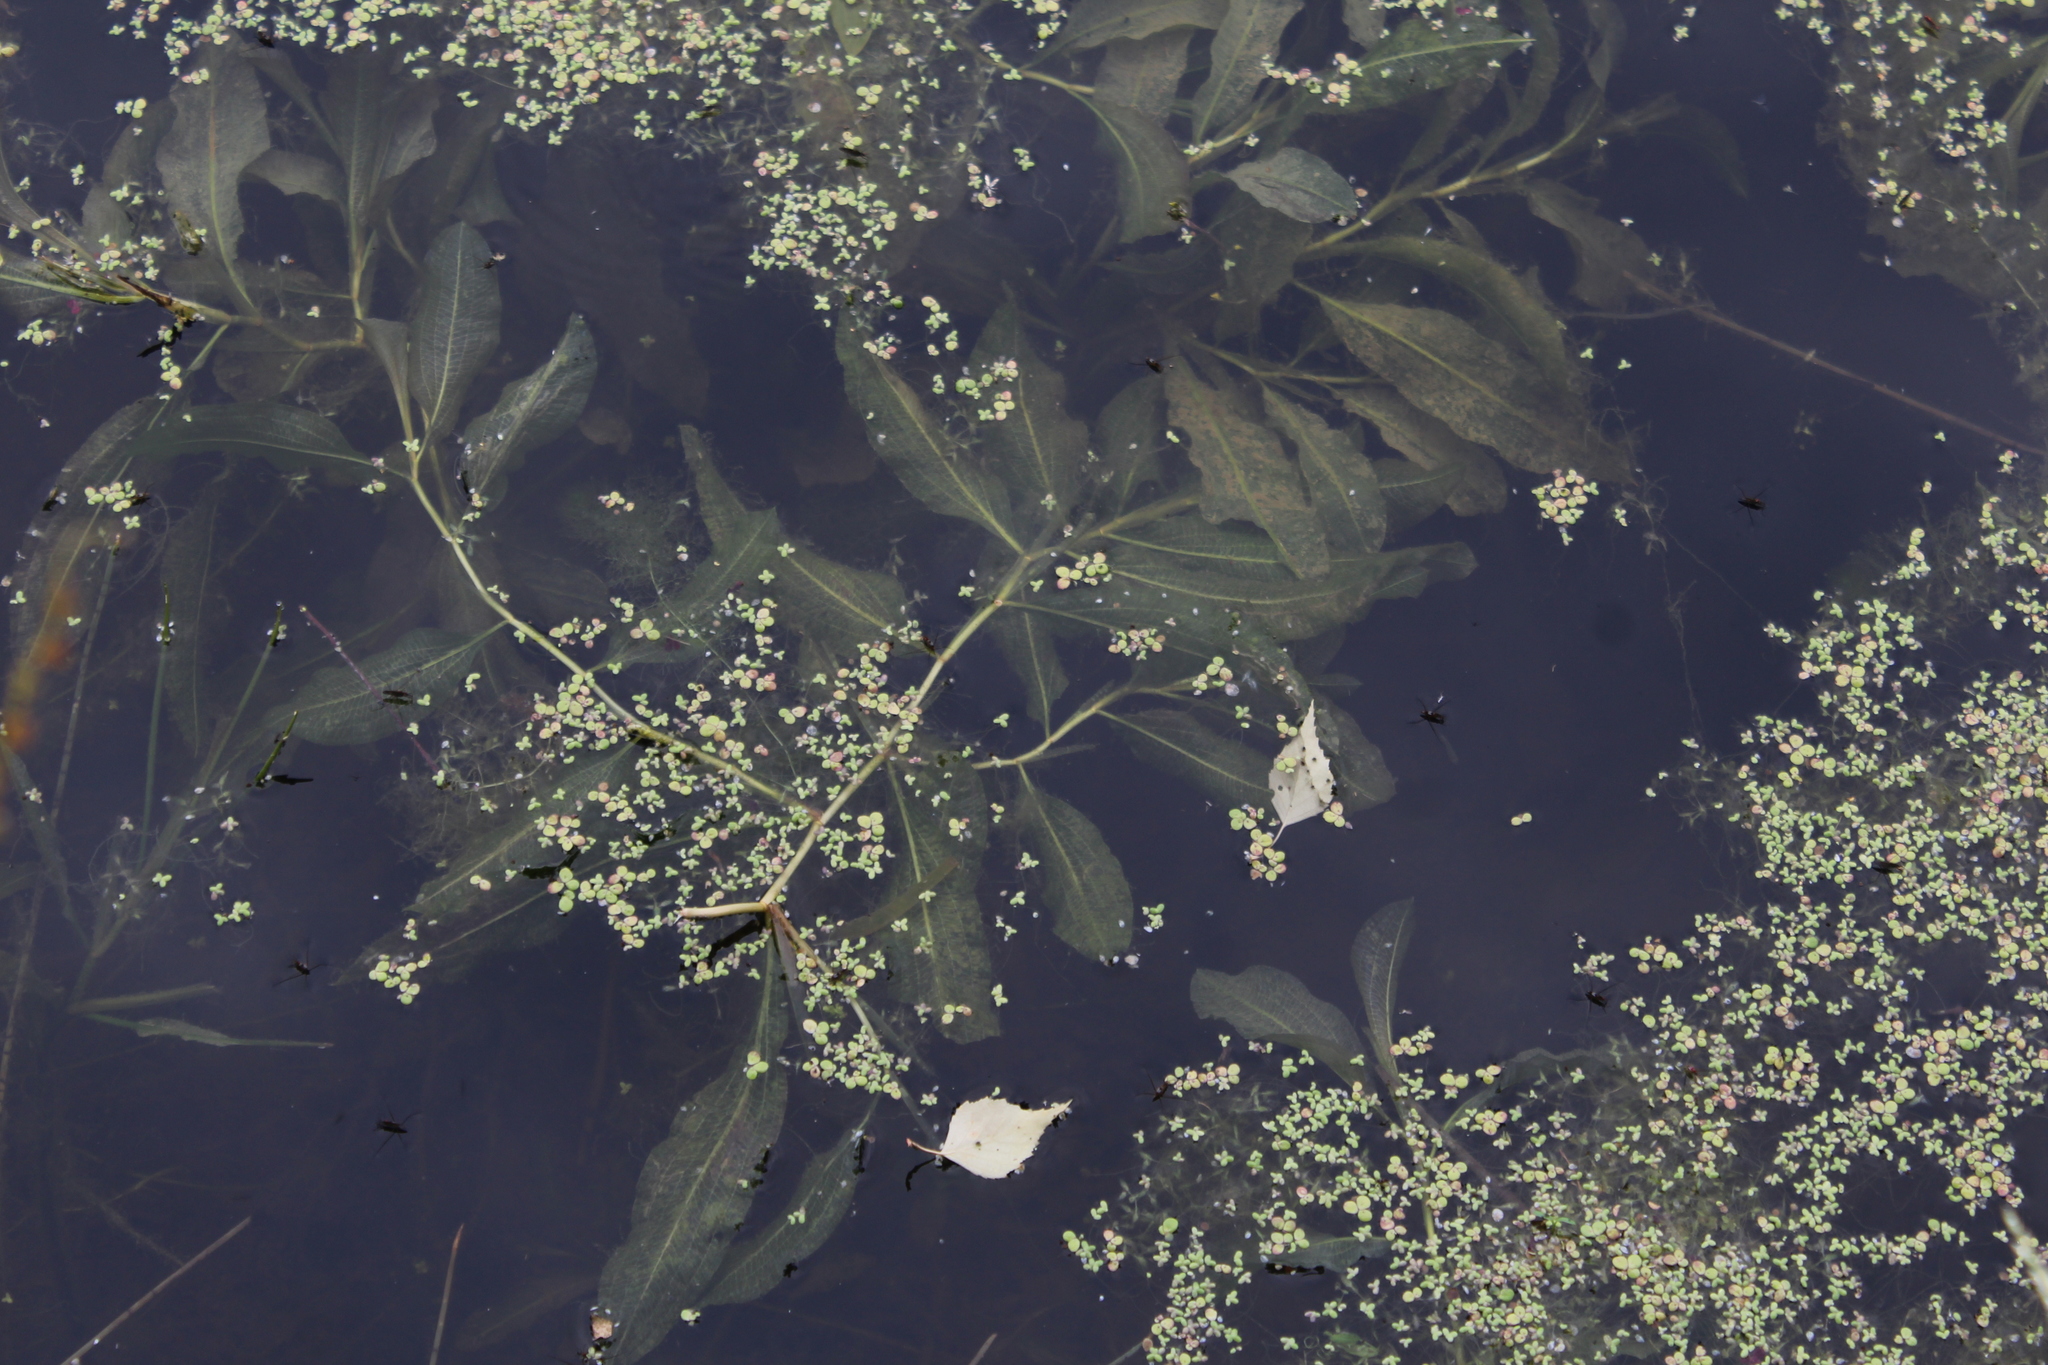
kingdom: Plantae
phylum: Tracheophyta
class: Liliopsida
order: Alismatales
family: Potamogetonaceae
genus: Potamogeton
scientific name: Potamogeton lucens
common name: Shining pondweed
